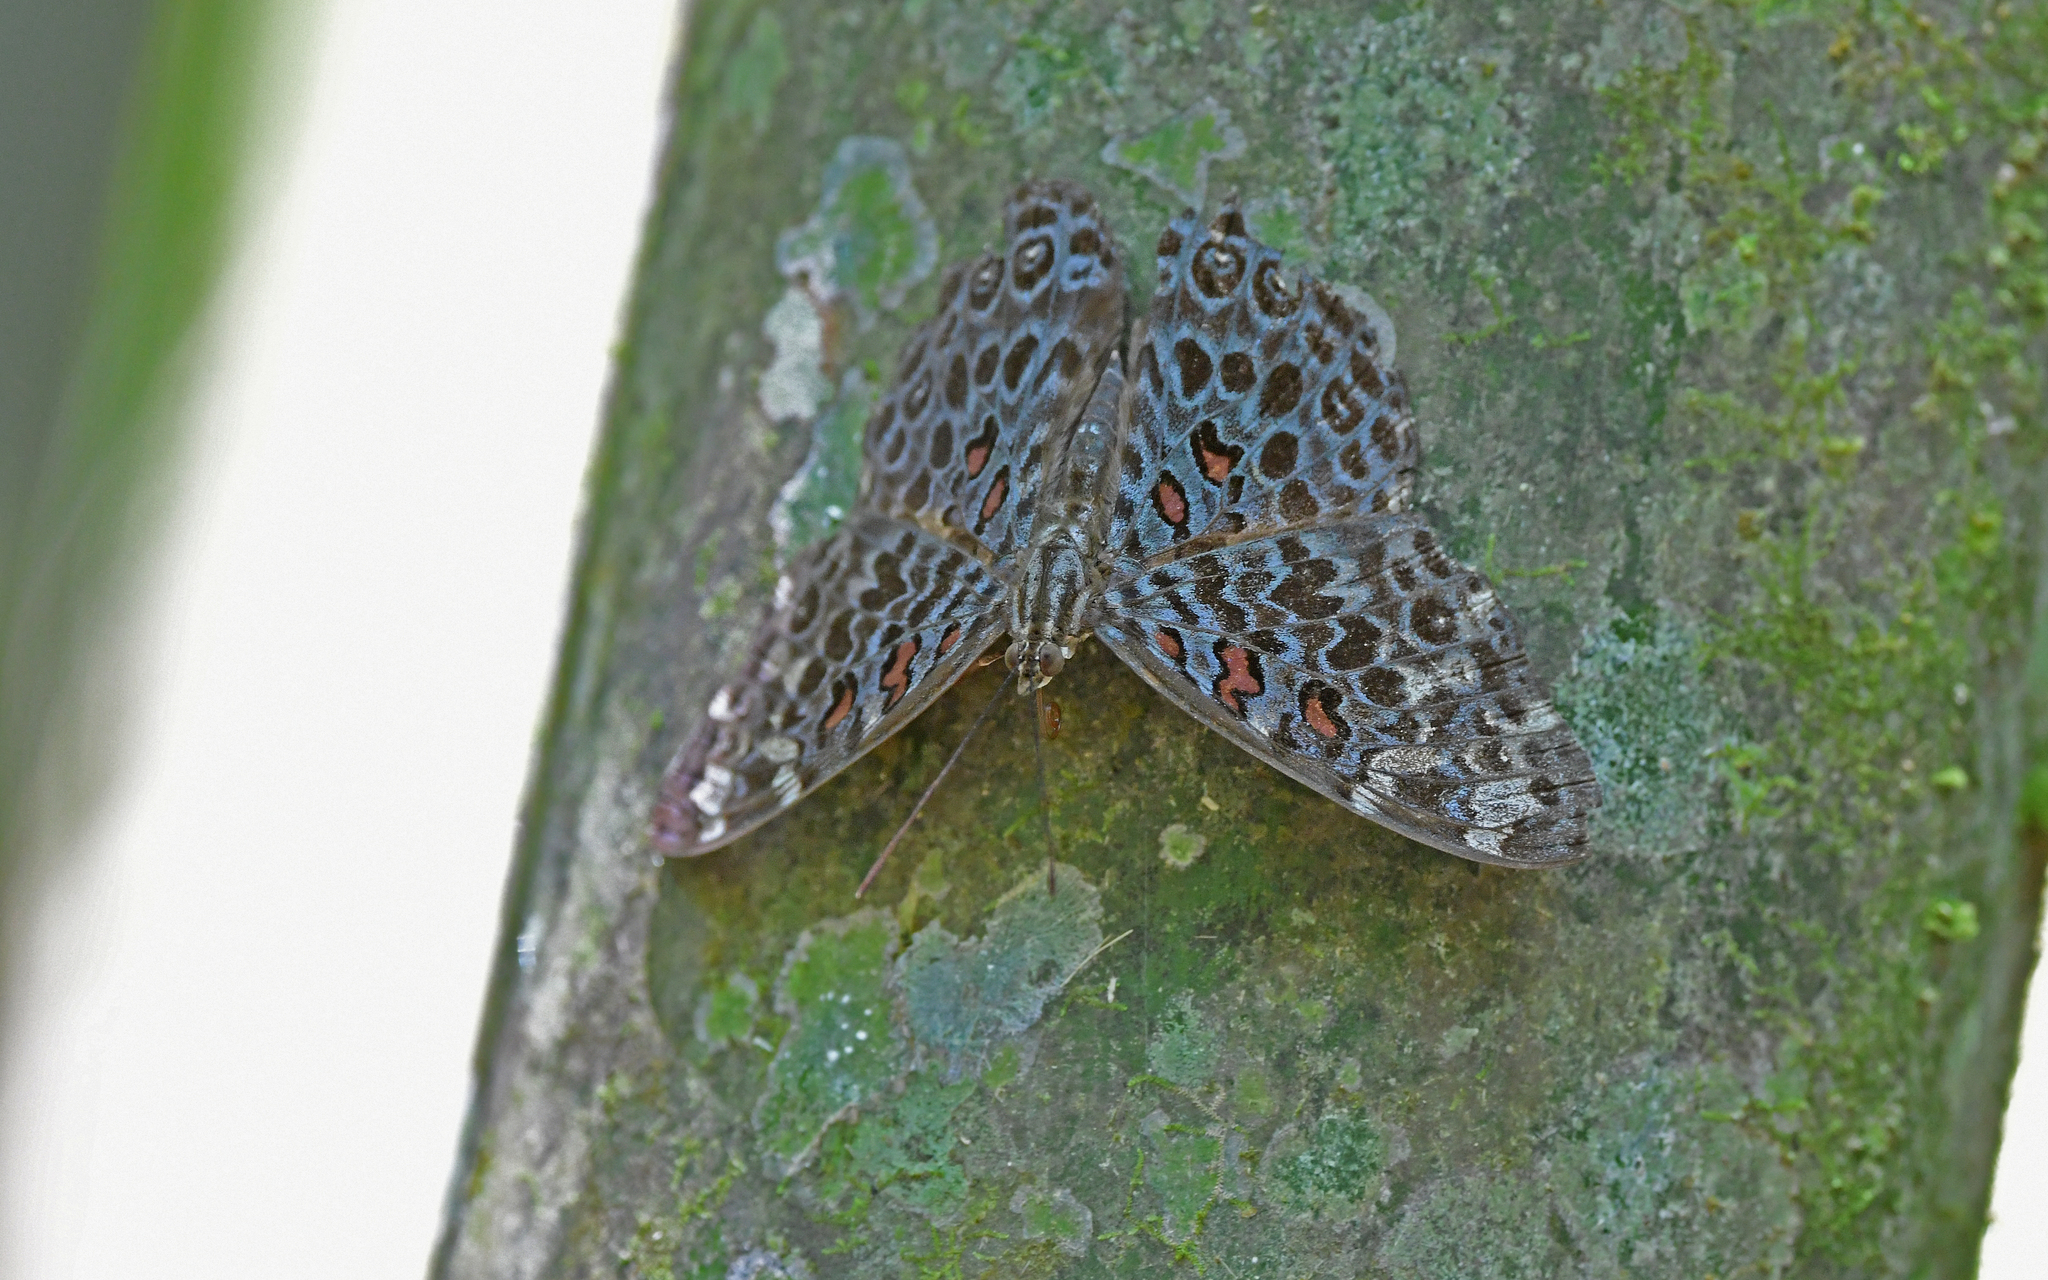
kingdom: Animalia
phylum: Arthropoda
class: Insecta
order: Lepidoptera
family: Nymphalidae
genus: Hamadryas
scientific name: Hamadryas chloe
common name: Amazon cracker
